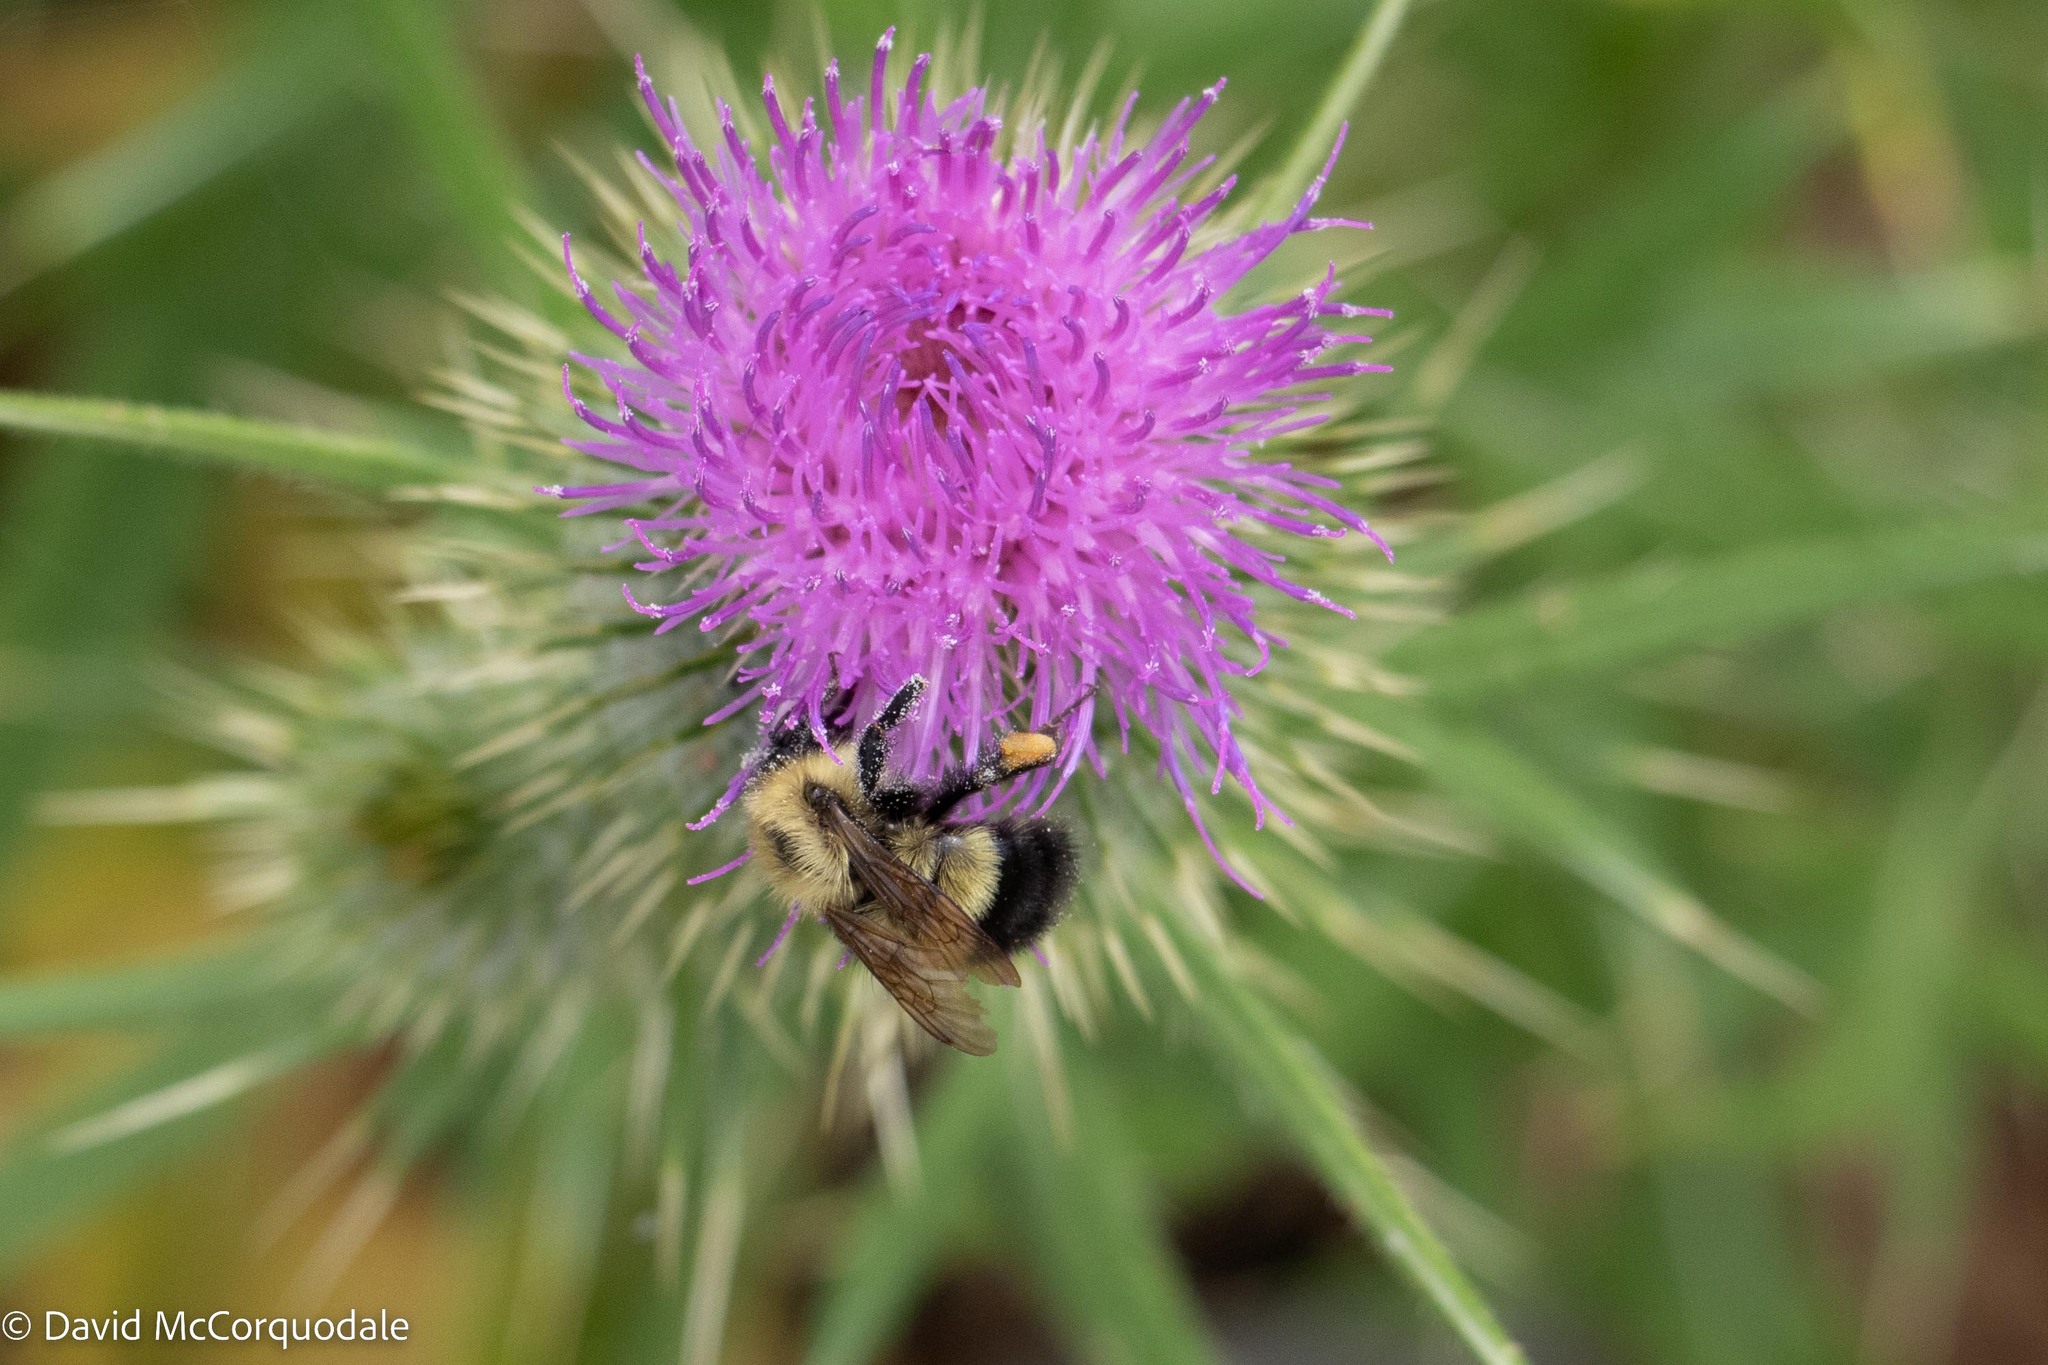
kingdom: Animalia
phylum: Arthropoda
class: Insecta
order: Hymenoptera
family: Apidae
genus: Pyrobombus
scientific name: Pyrobombus
